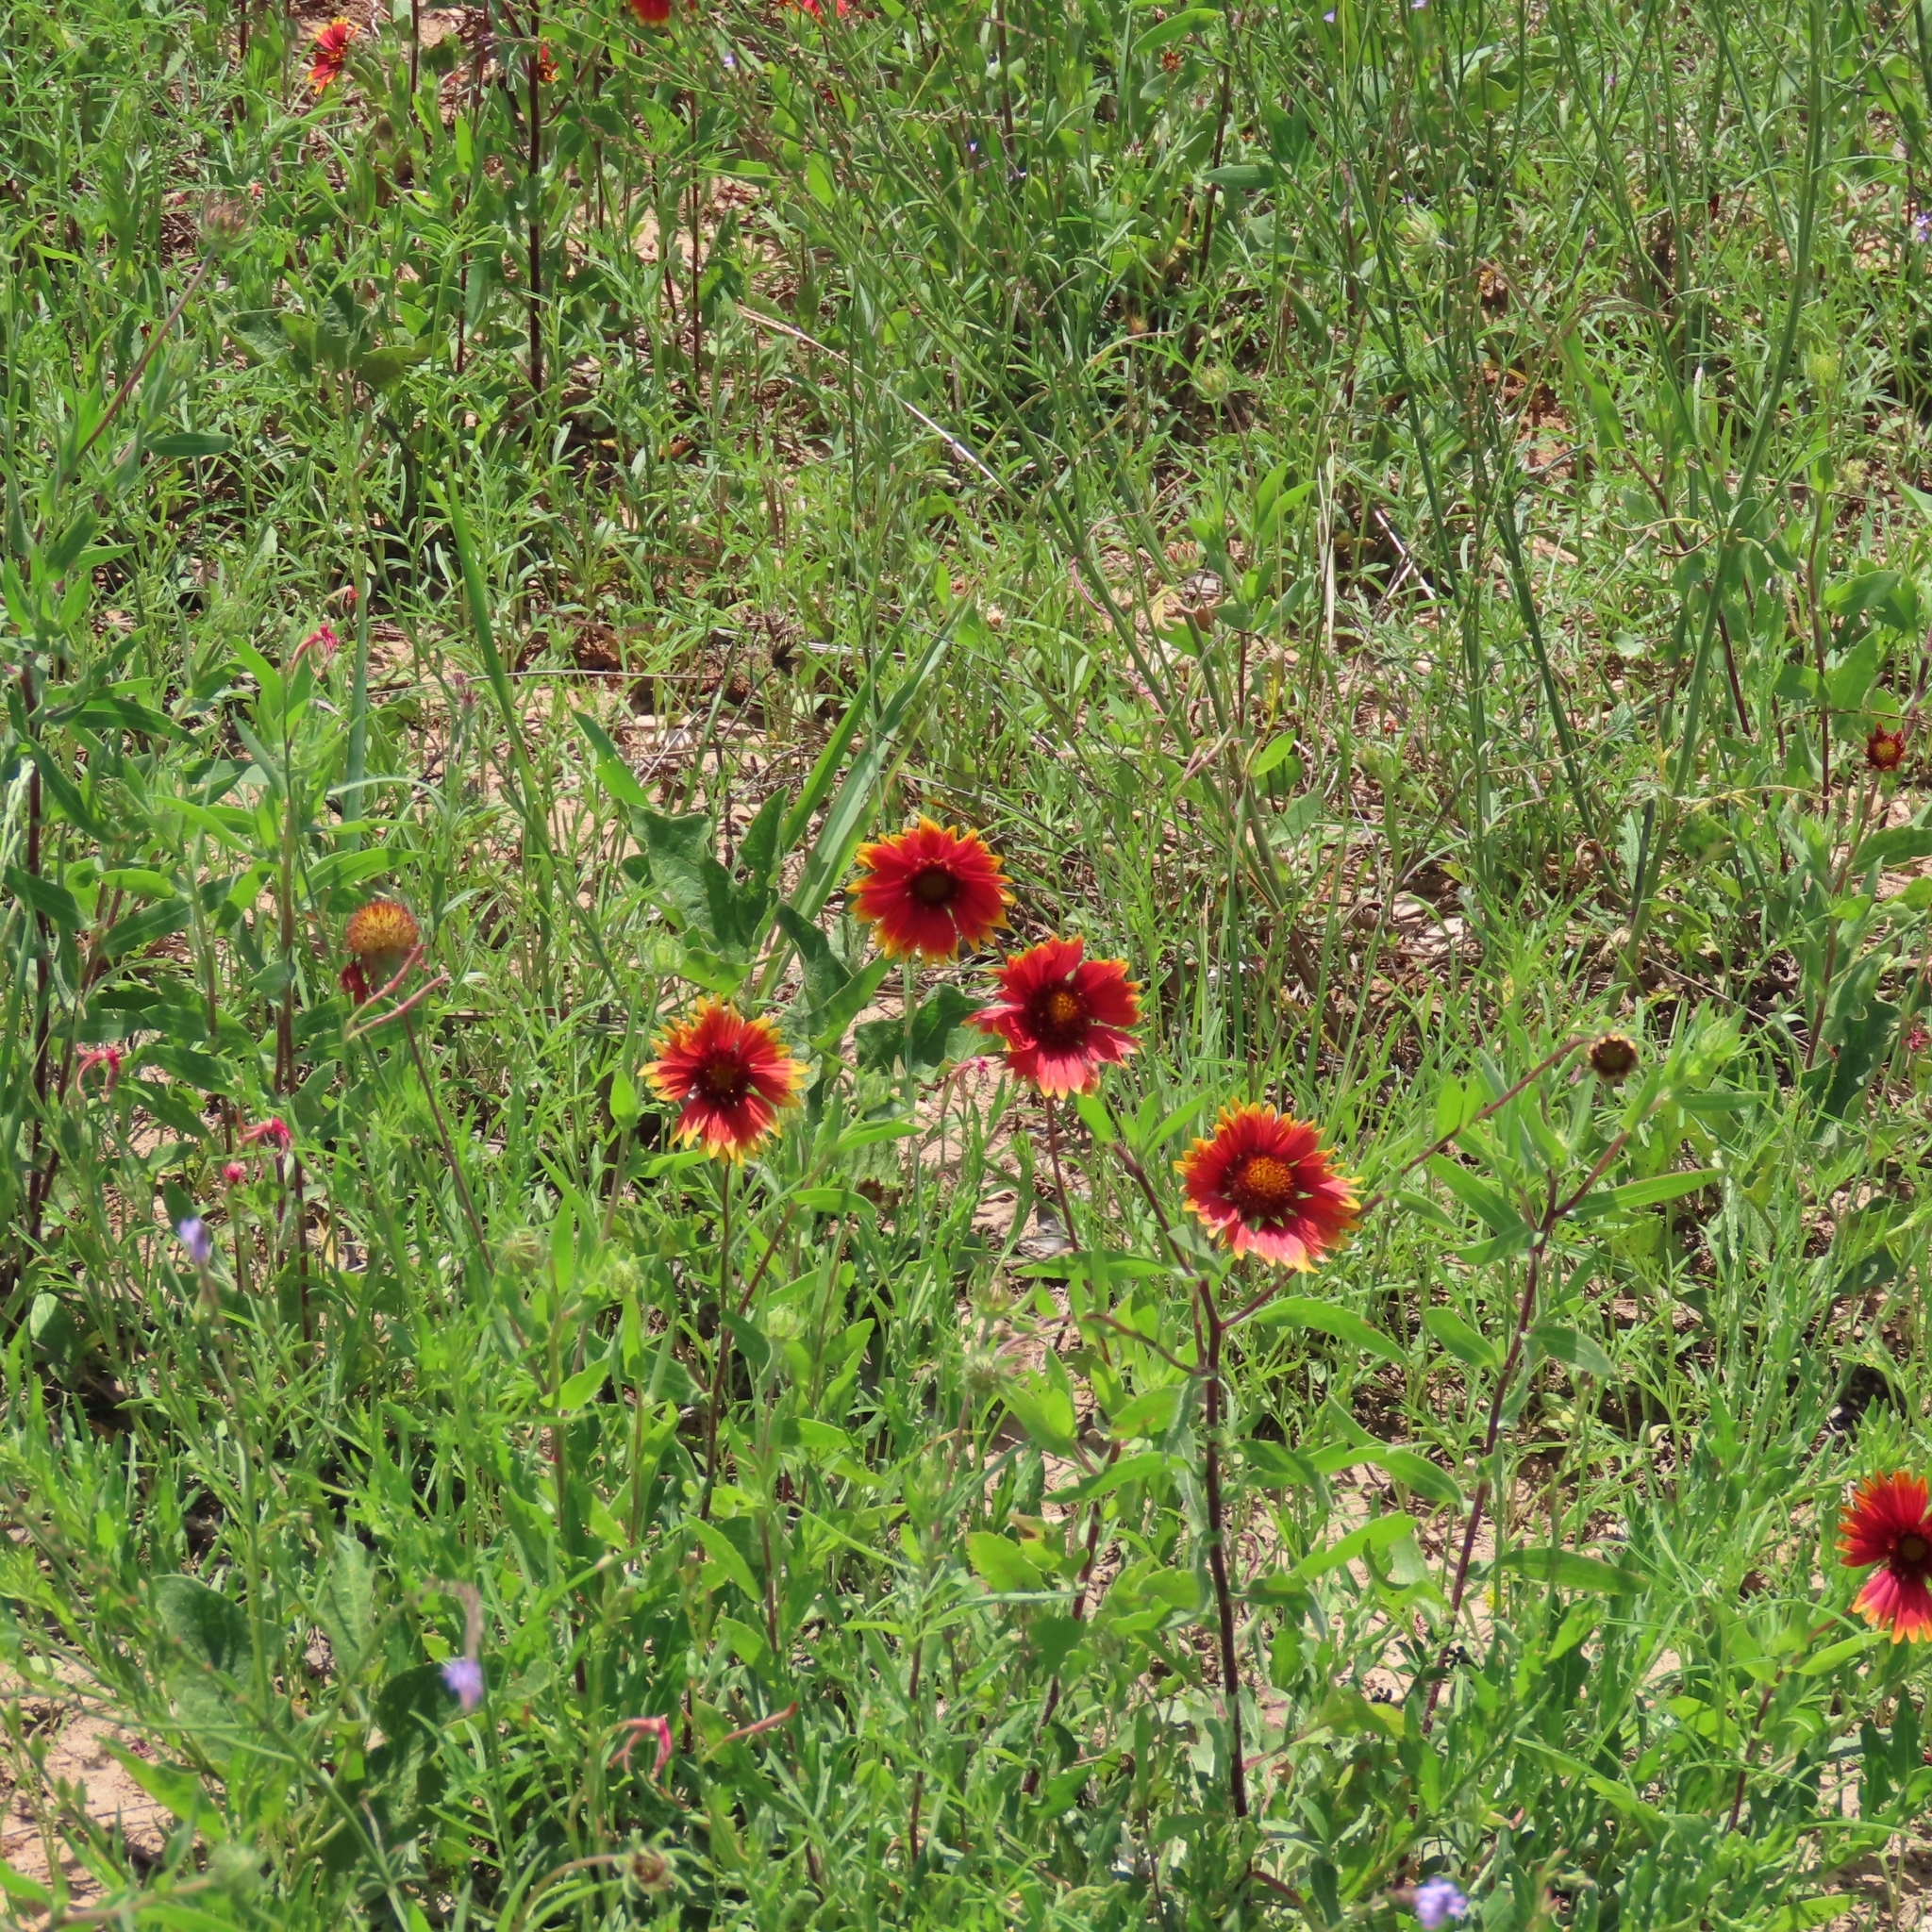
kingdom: Plantae
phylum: Tracheophyta
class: Magnoliopsida
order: Asterales
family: Asteraceae
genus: Gaillardia
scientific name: Gaillardia pulchella
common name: Firewheel
